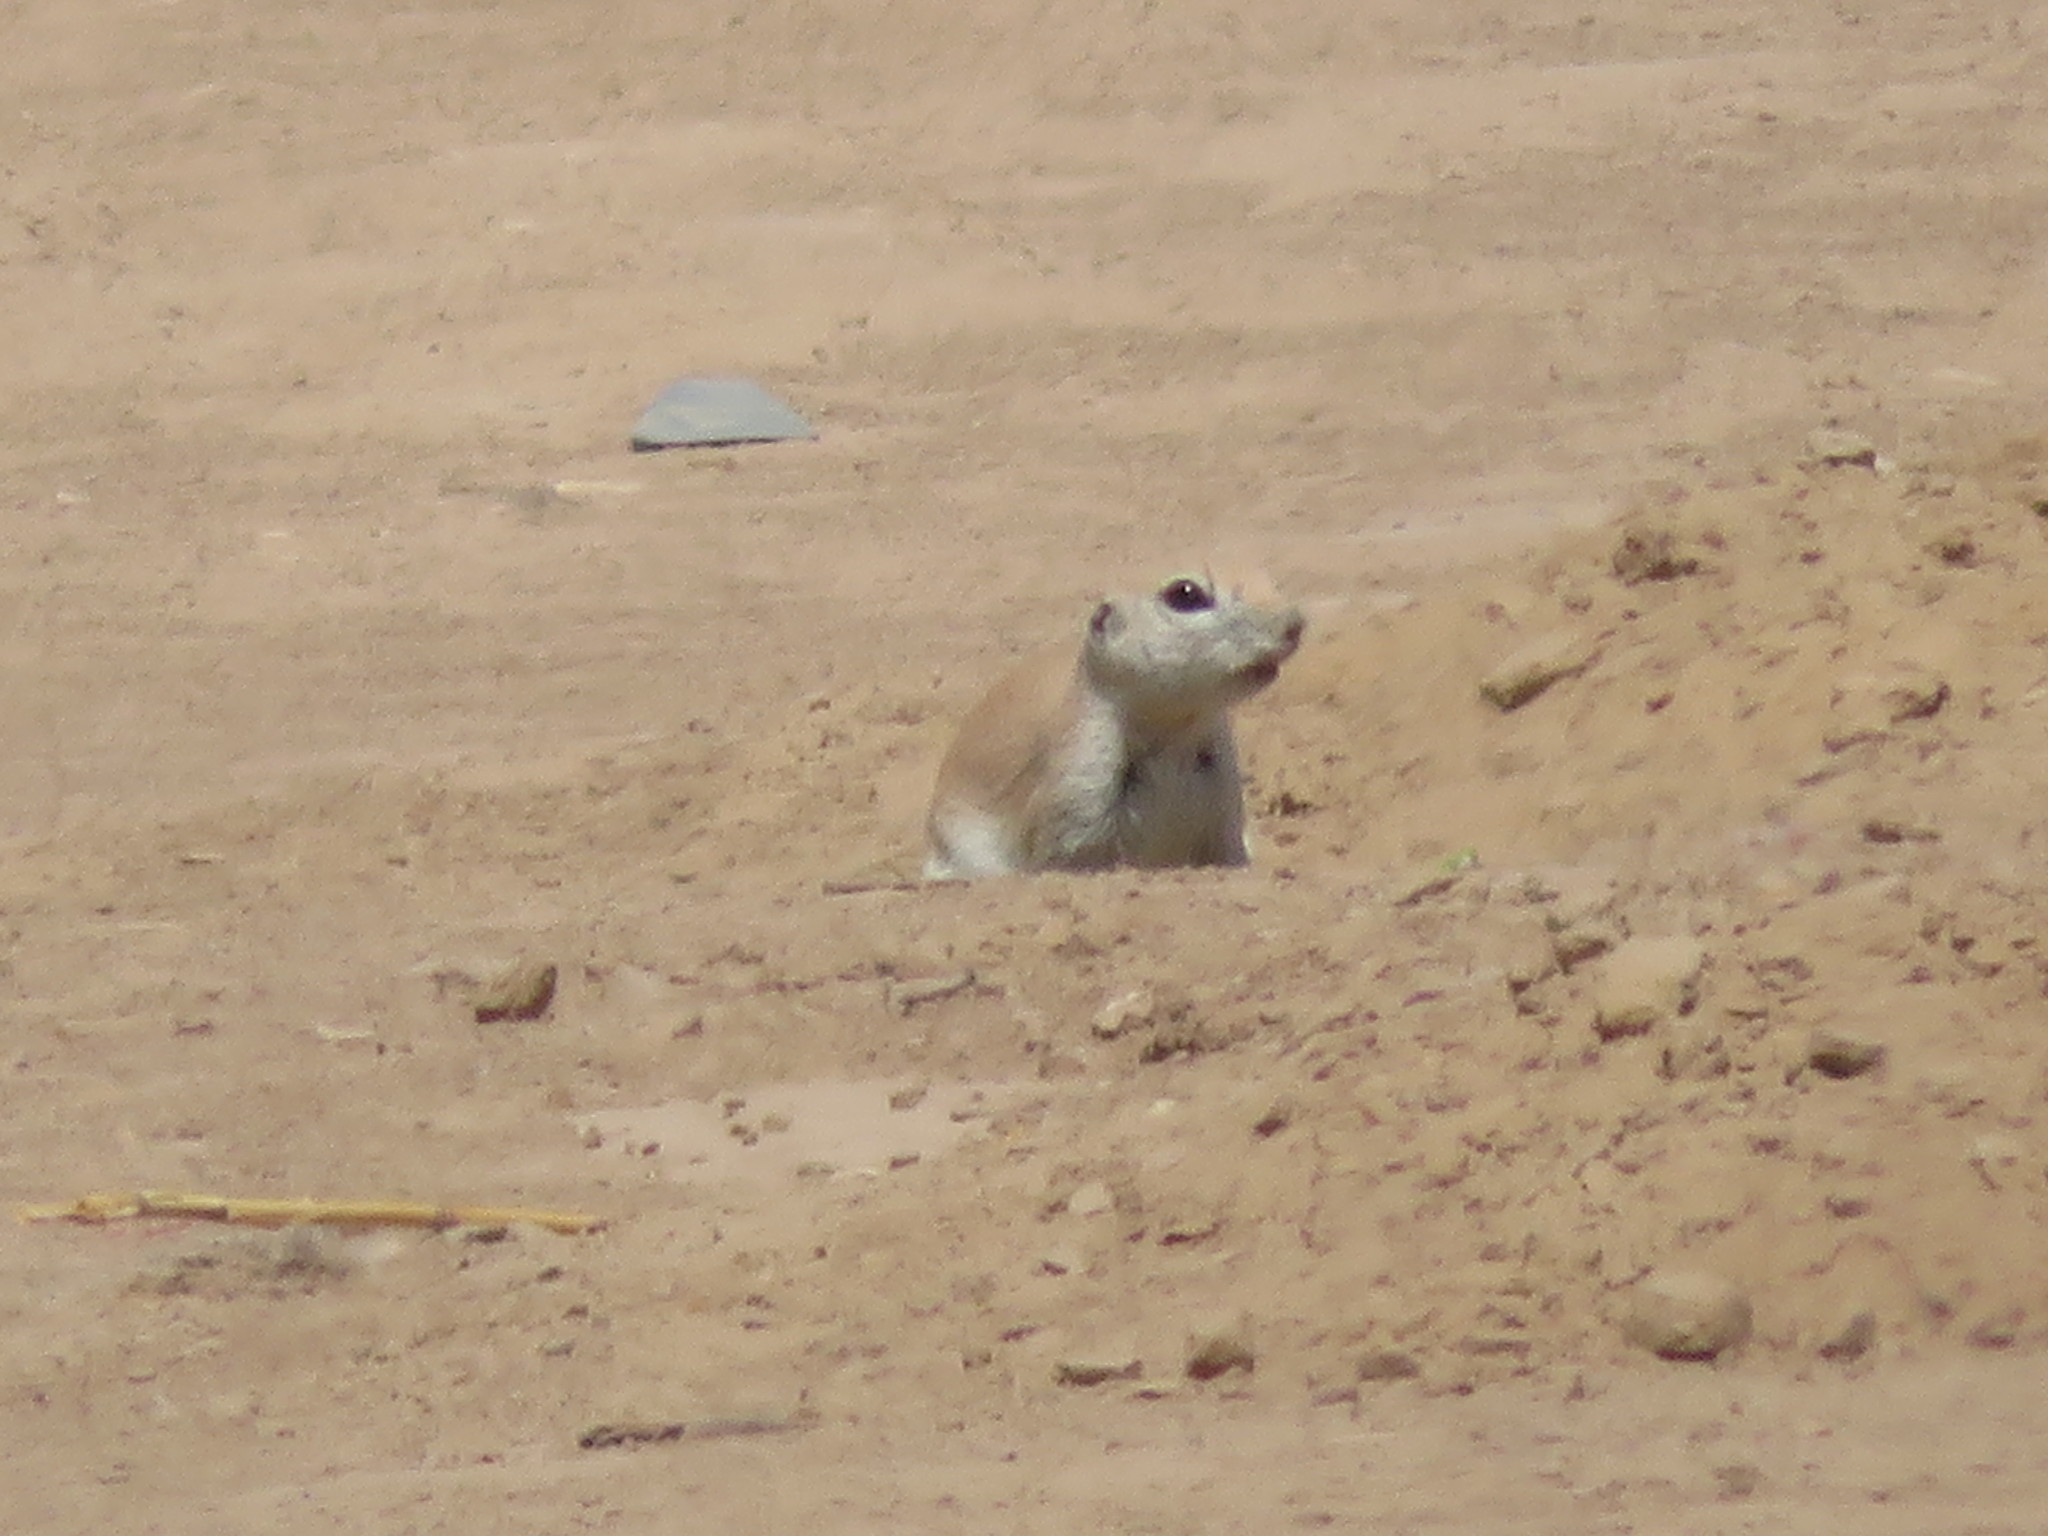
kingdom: Animalia
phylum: Chordata
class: Mammalia
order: Rodentia
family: Sciuridae
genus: Xerospermophilus
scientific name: Xerospermophilus tereticaudus
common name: Round-tailed ground squirrel
